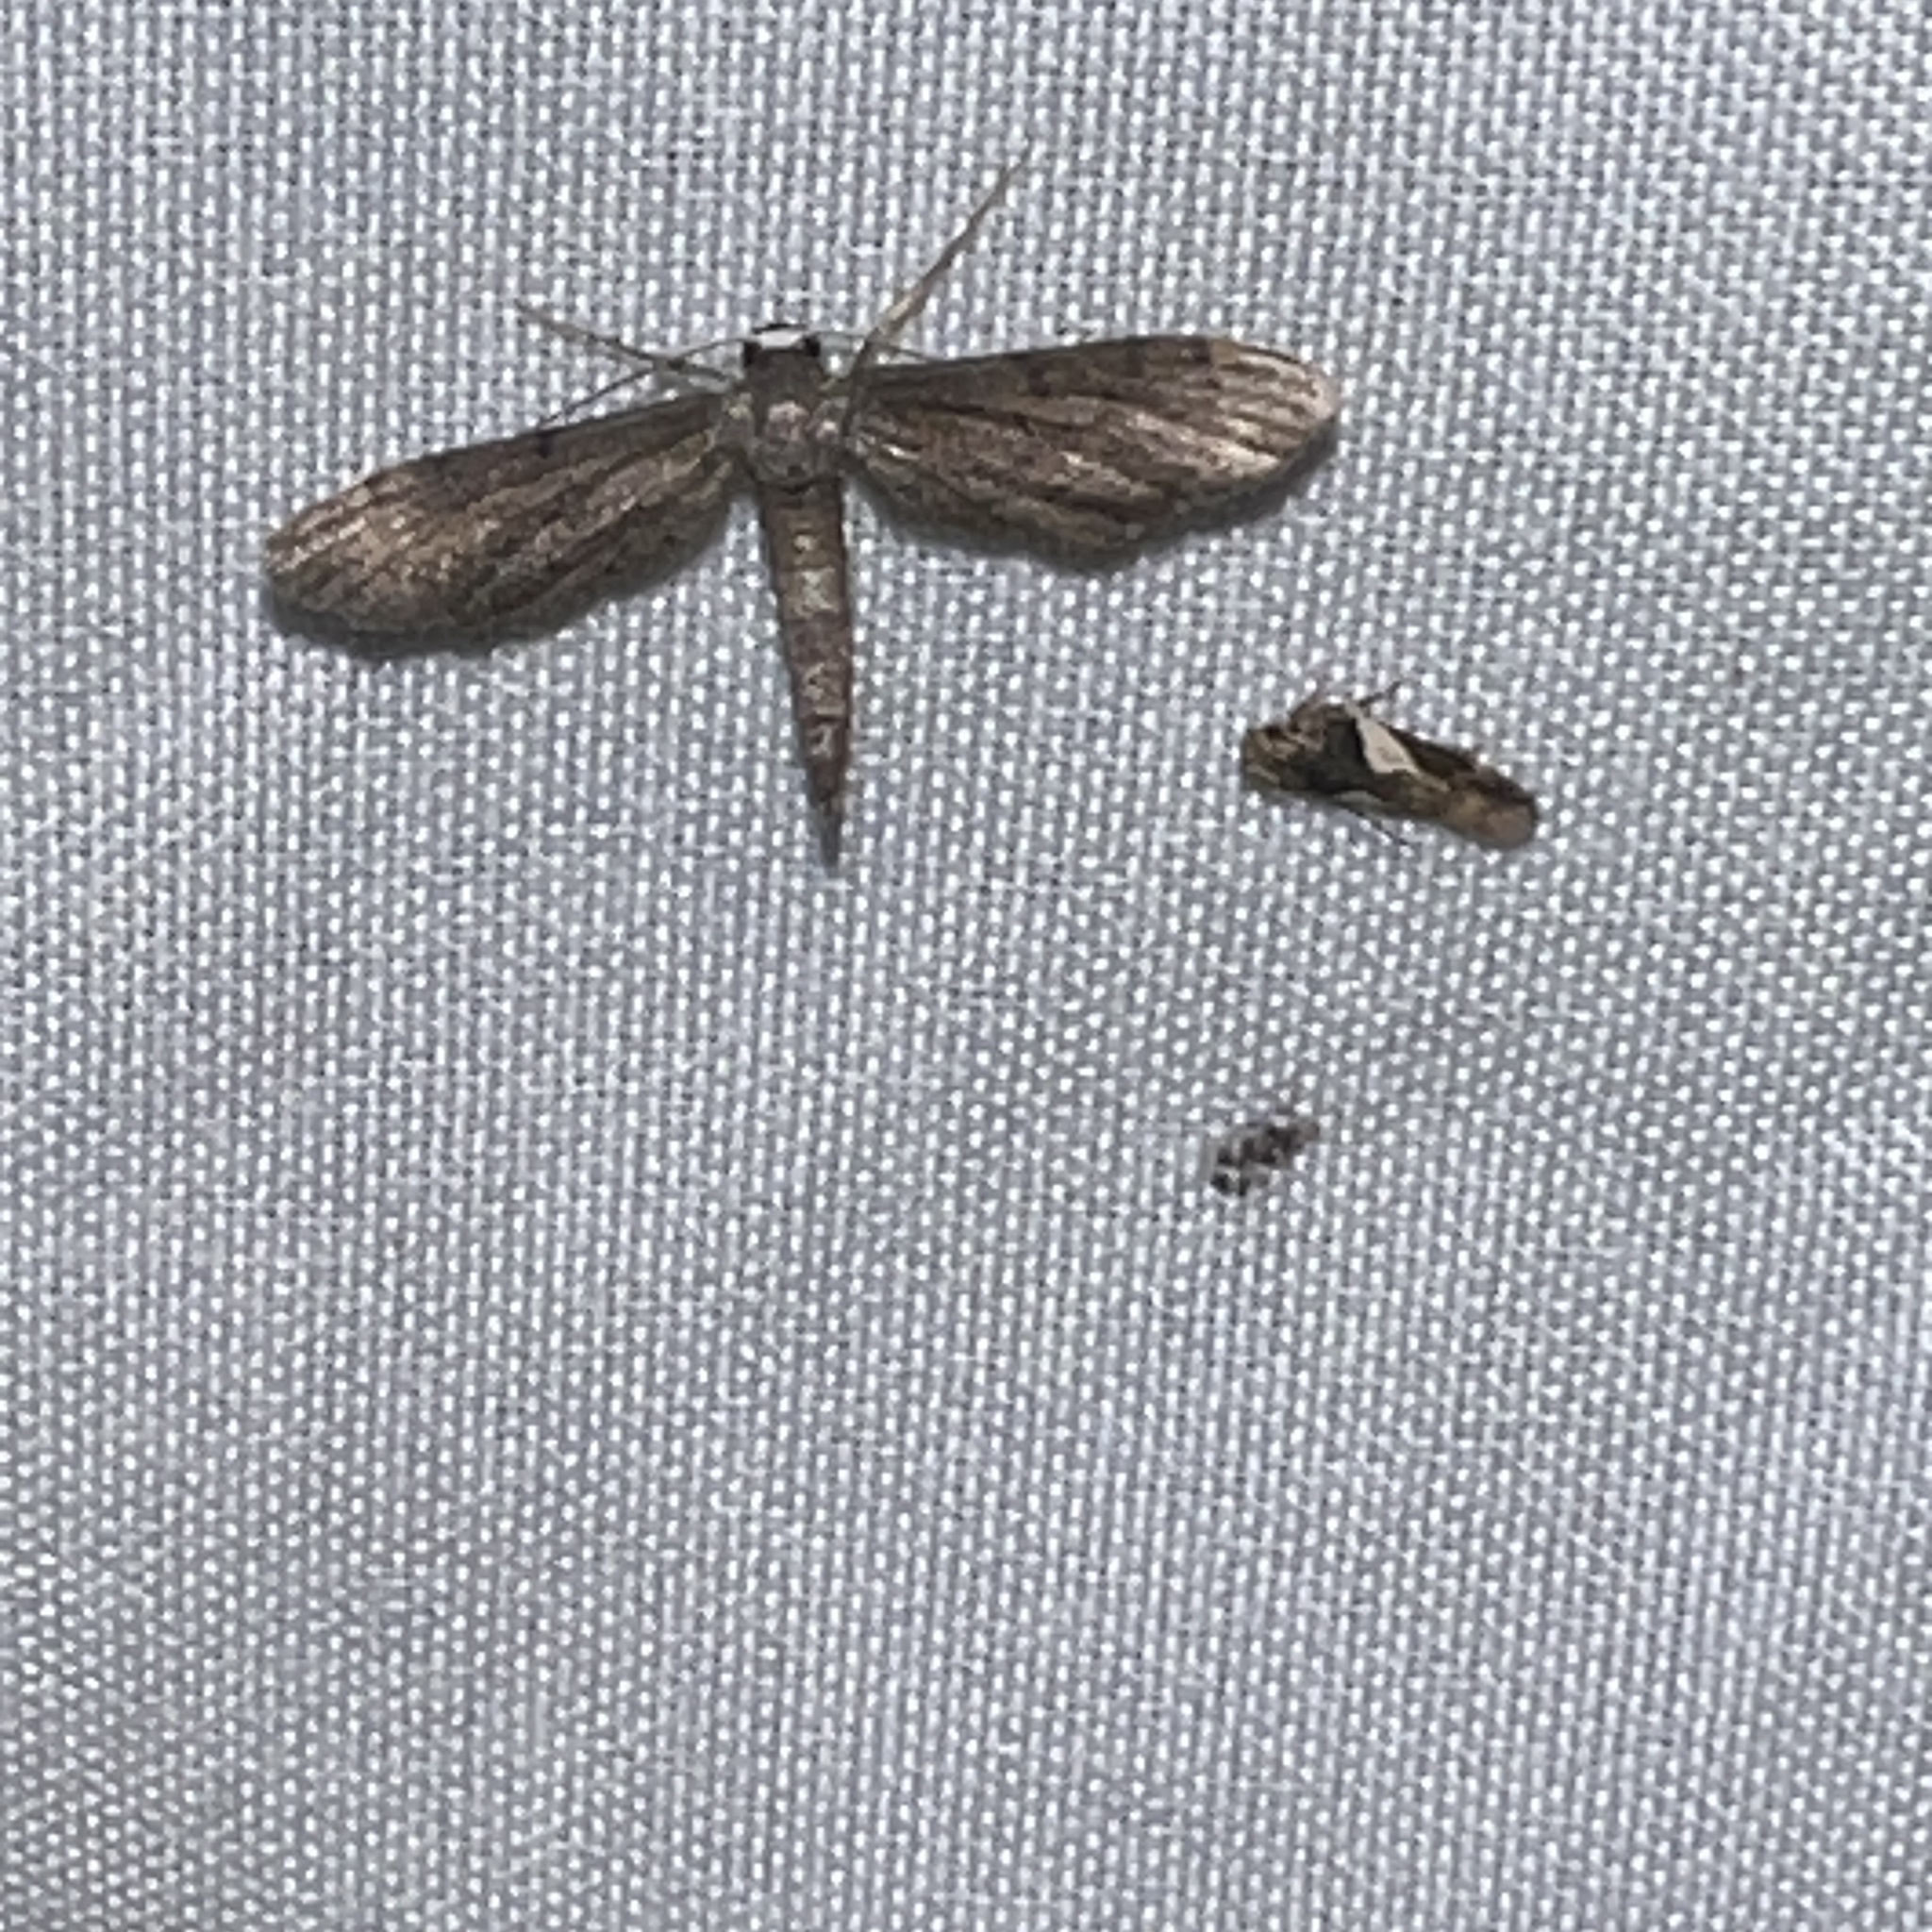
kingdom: Animalia
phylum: Arthropoda
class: Insecta
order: Lepidoptera
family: Geometridae
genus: Euacidalia
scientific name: Euacidalia brownsvillea
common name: Cankerworm
